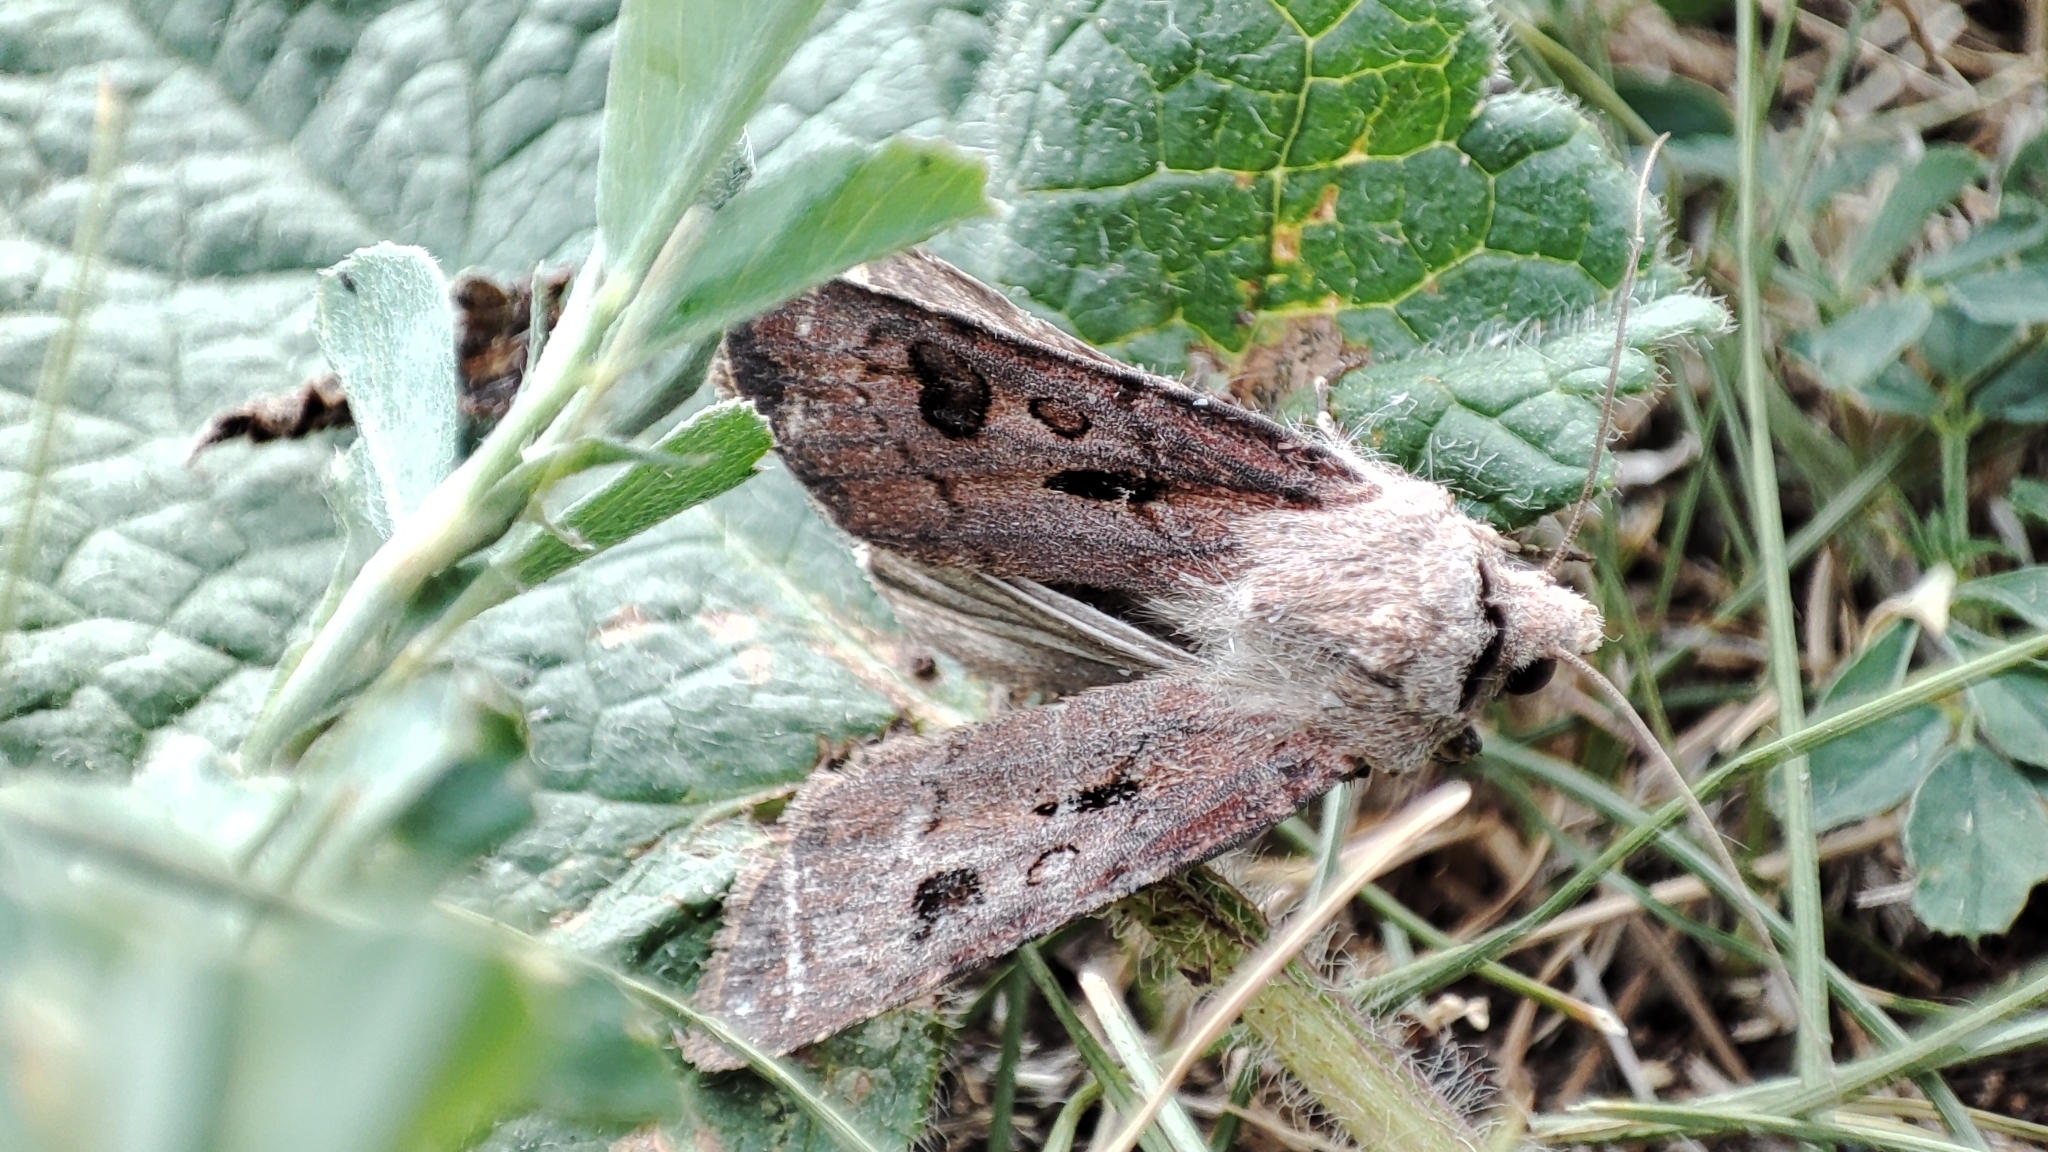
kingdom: Animalia
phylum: Arthropoda
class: Insecta
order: Lepidoptera
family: Noctuidae
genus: Agrotis
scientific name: Agrotis exclamationis
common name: Heart and dart
